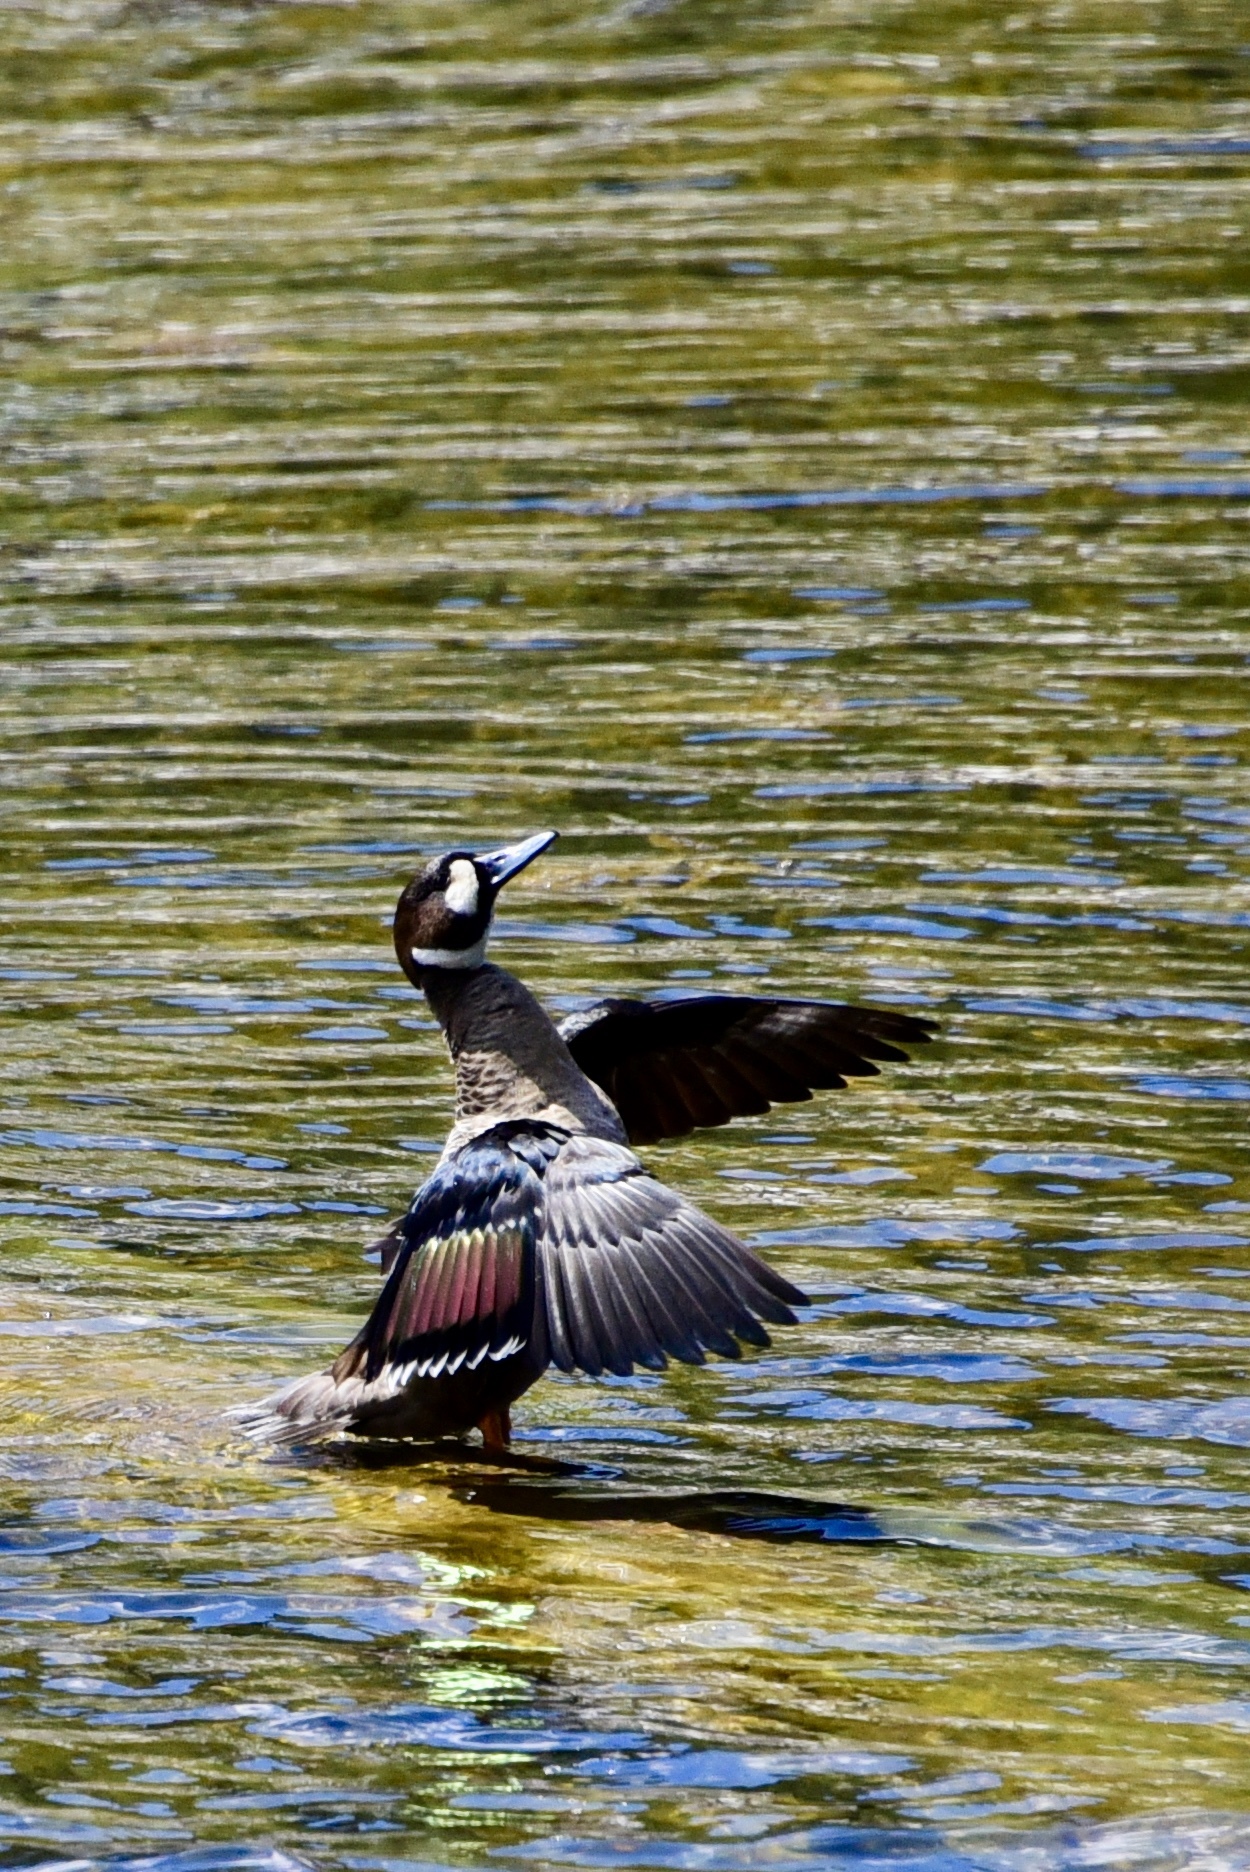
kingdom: Animalia
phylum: Chordata
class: Aves
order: Anseriformes
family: Anatidae
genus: Speculanas
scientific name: Speculanas specularis
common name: Bronze-winged duck
